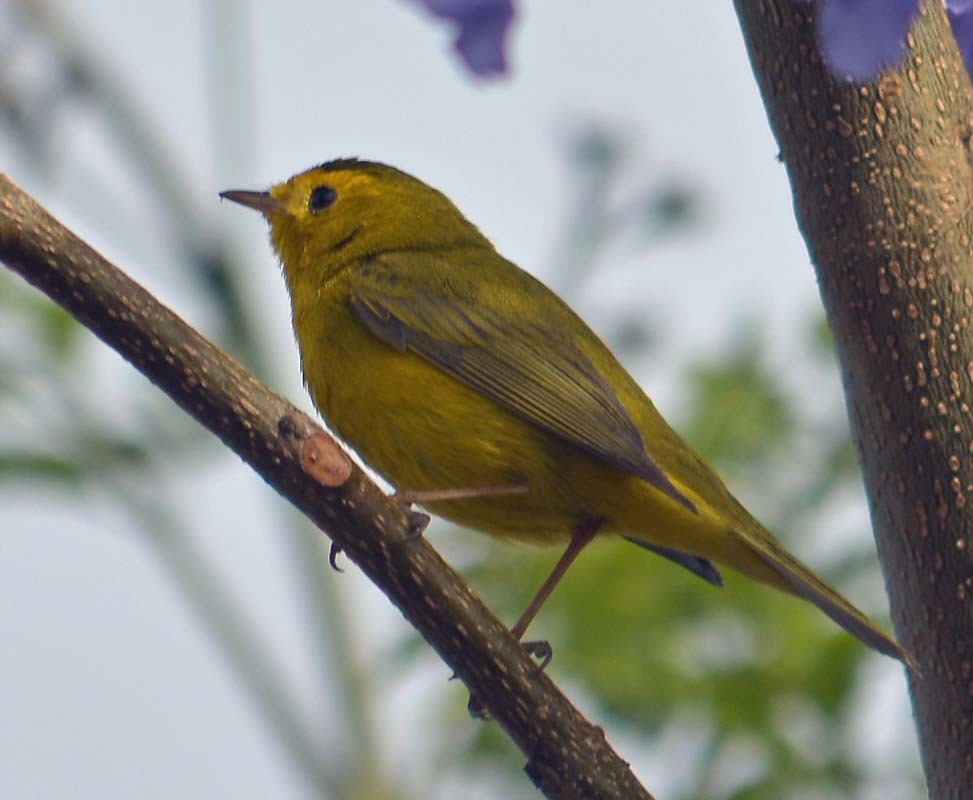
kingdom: Animalia
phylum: Chordata
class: Aves
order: Passeriformes
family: Parulidae
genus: Cardellina
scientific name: Cardellina pusilla
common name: Wilson's warbler
